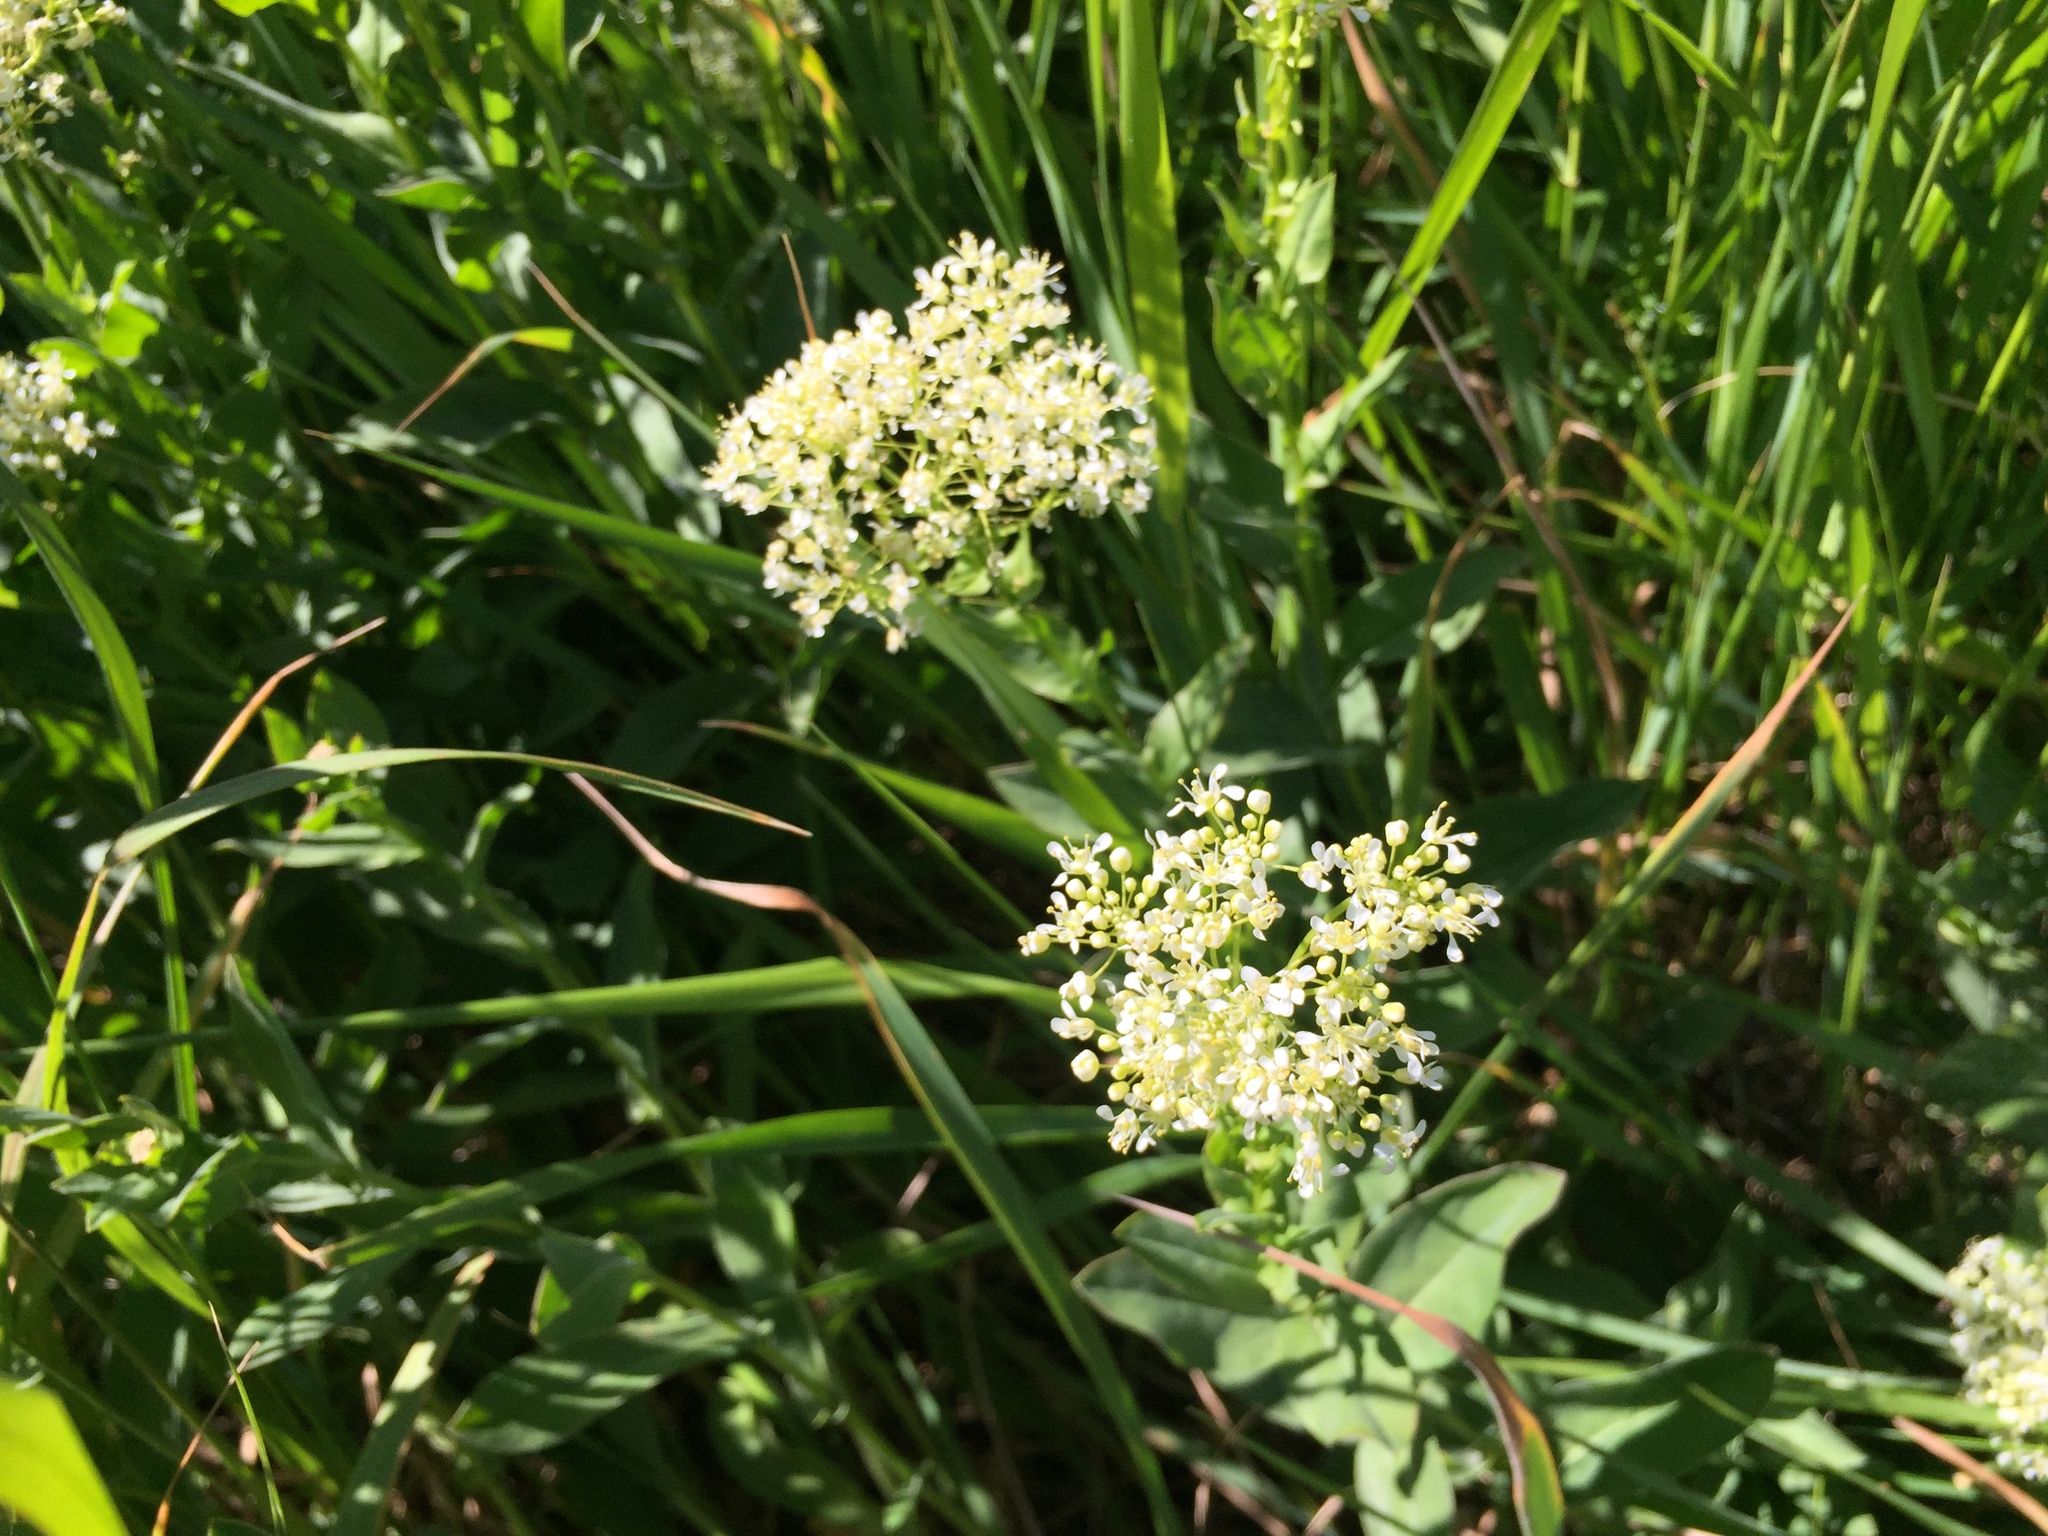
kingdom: Plantae
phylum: Tracheophyta
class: Magnoliopsida
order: Brassicales
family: Brassicaceae
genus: Lepidium
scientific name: Lepidium draba
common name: Hoary cress
